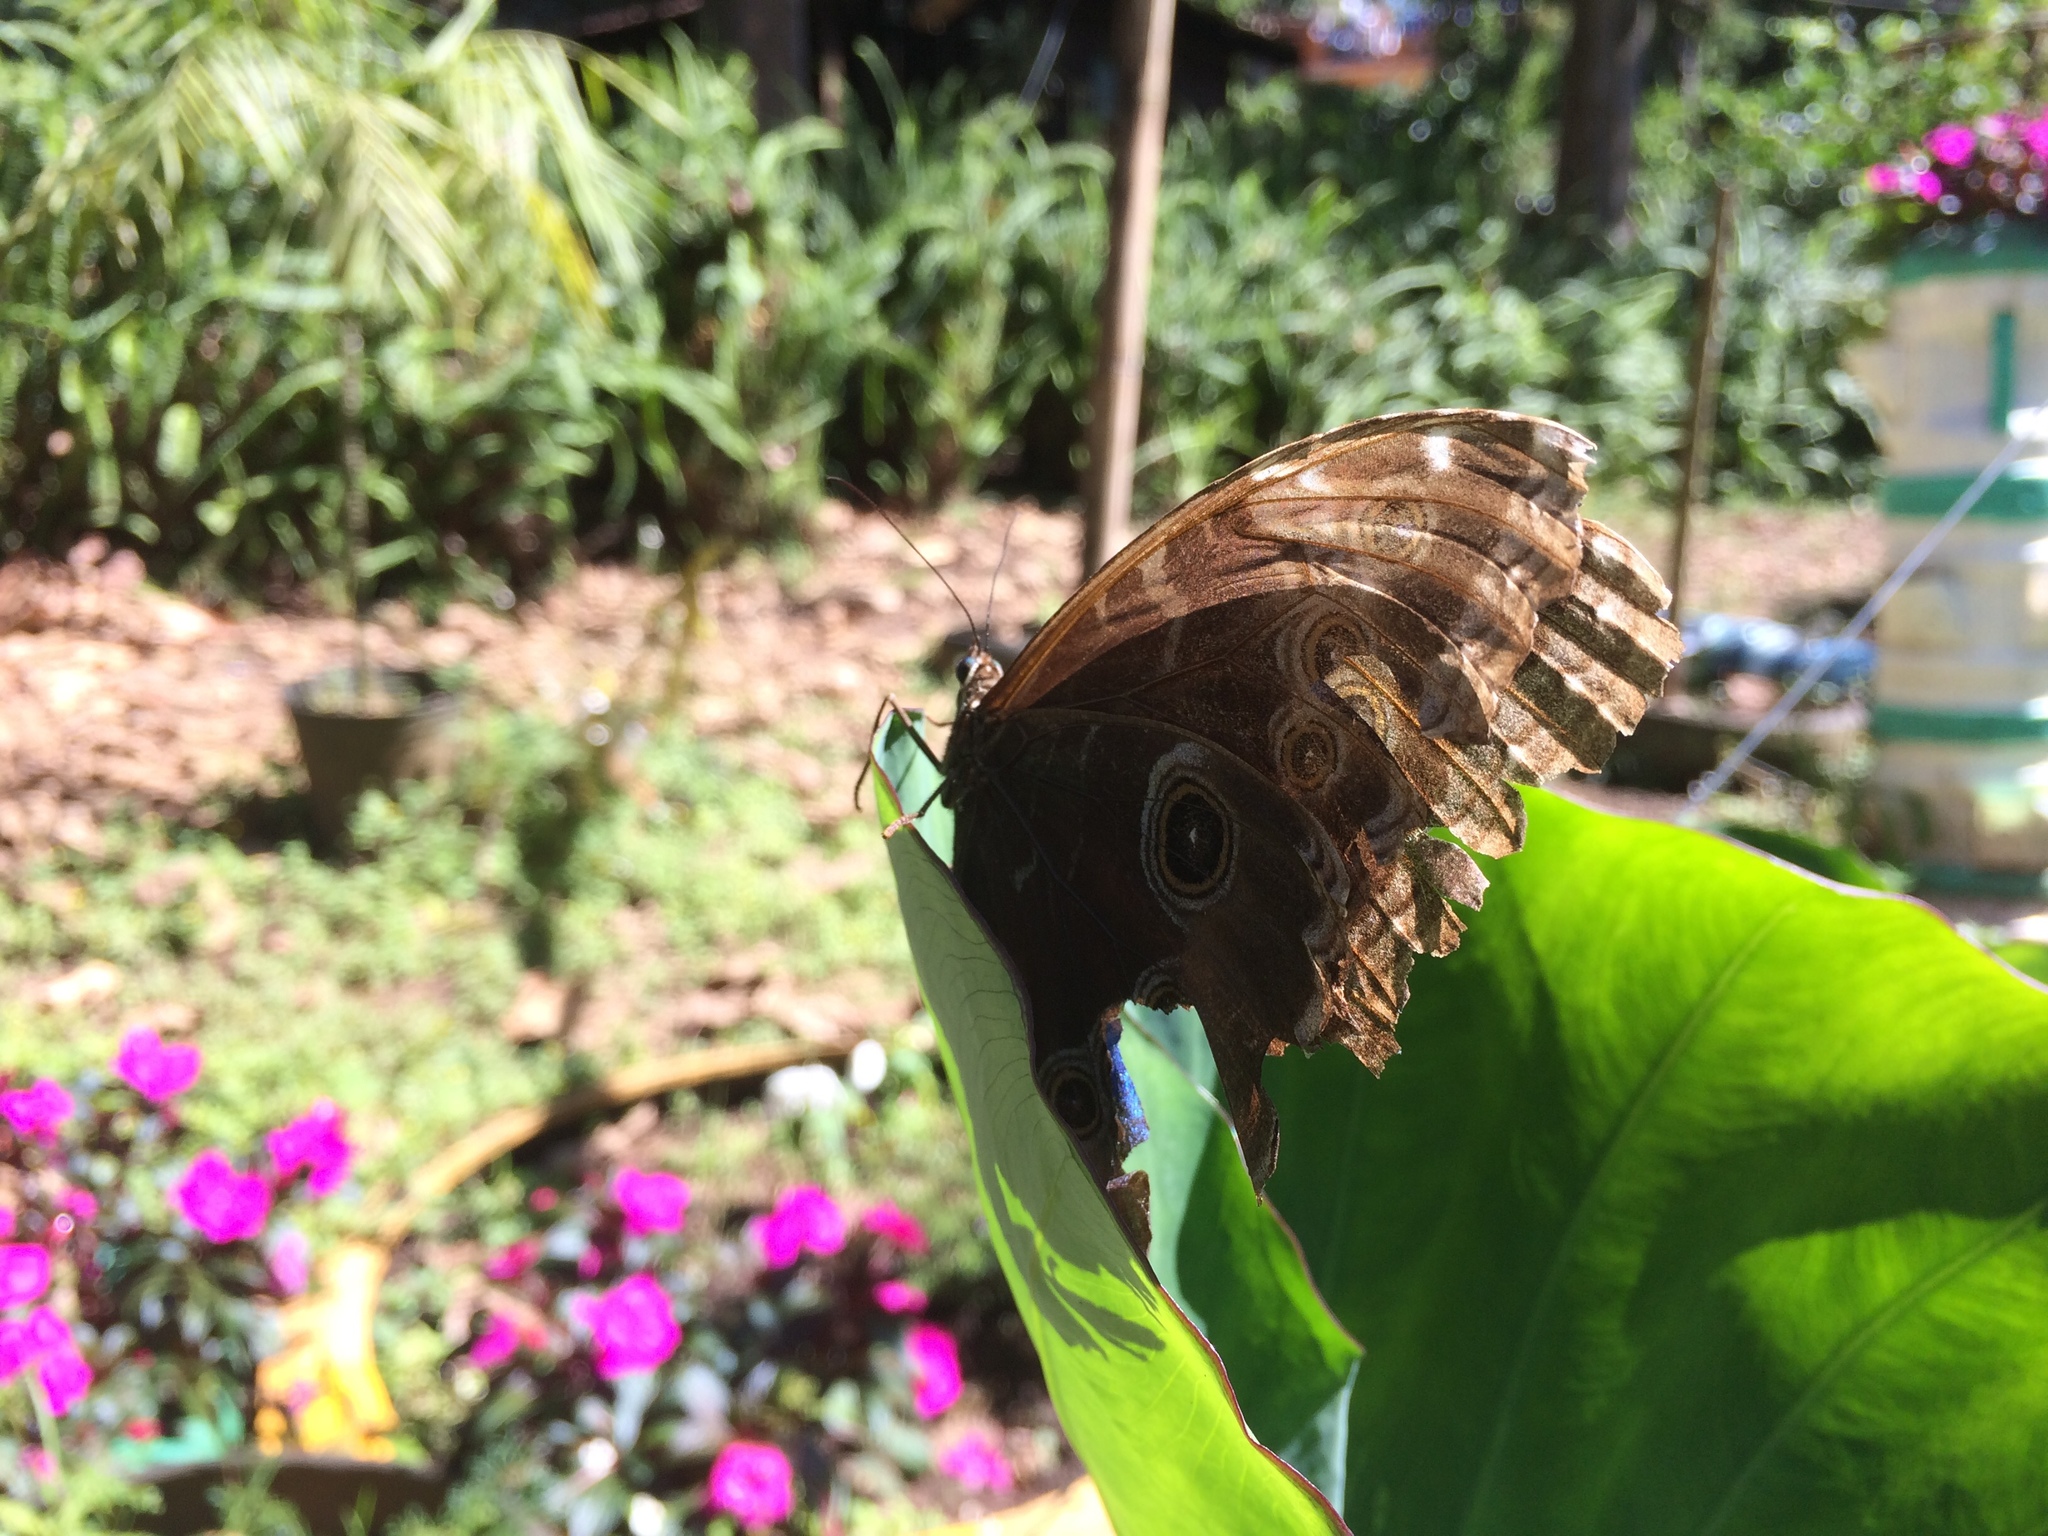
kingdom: Animalia
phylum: Arthropoda
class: Insecta
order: Lepidoptera
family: Nymphalidae
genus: Morpho
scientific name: Morpho helenor
